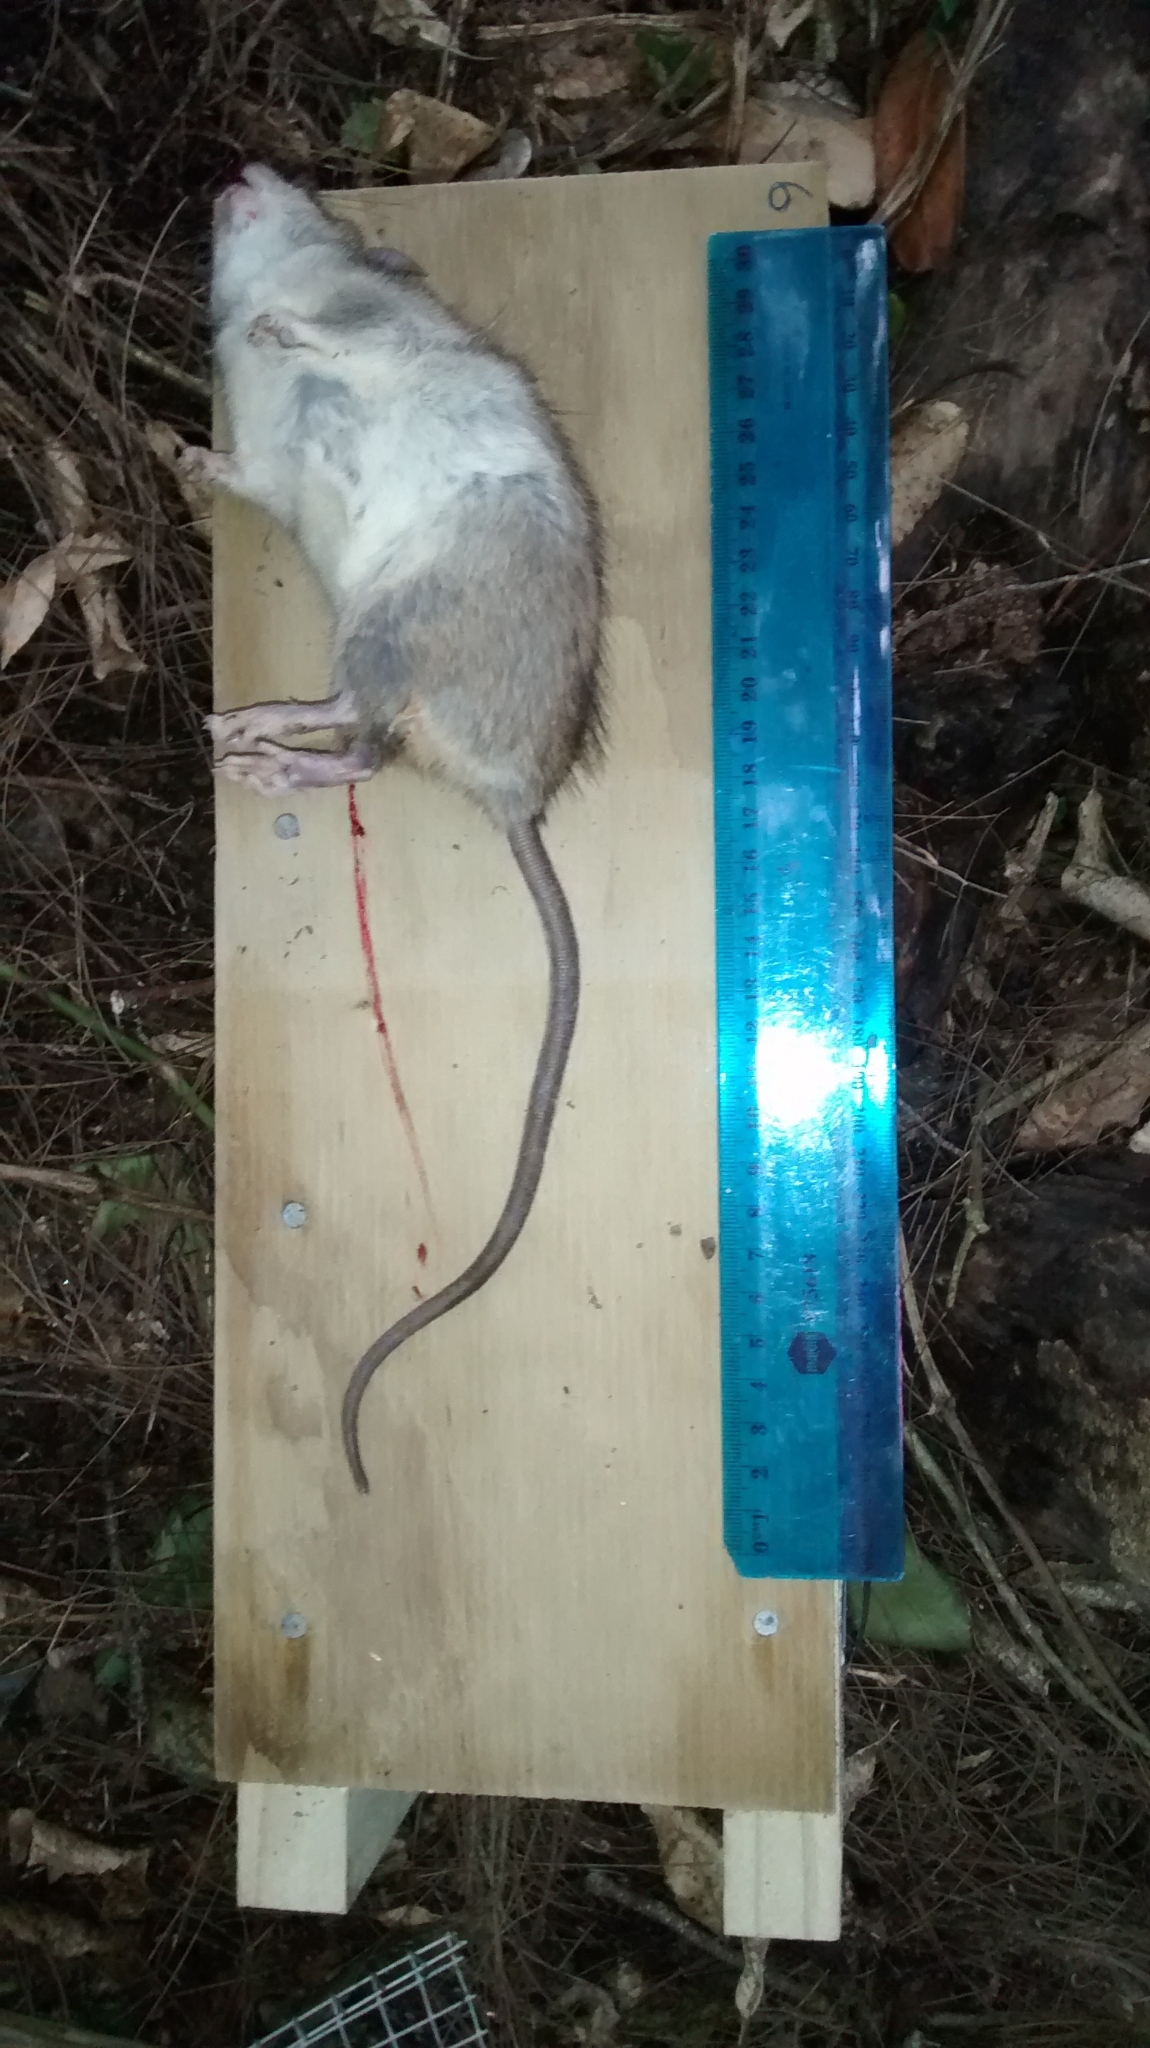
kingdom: Animalia
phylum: Chordata
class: Mammalia
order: Rodentia
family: Muridae
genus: Rattus
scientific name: Rattus rattus
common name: Black rat
